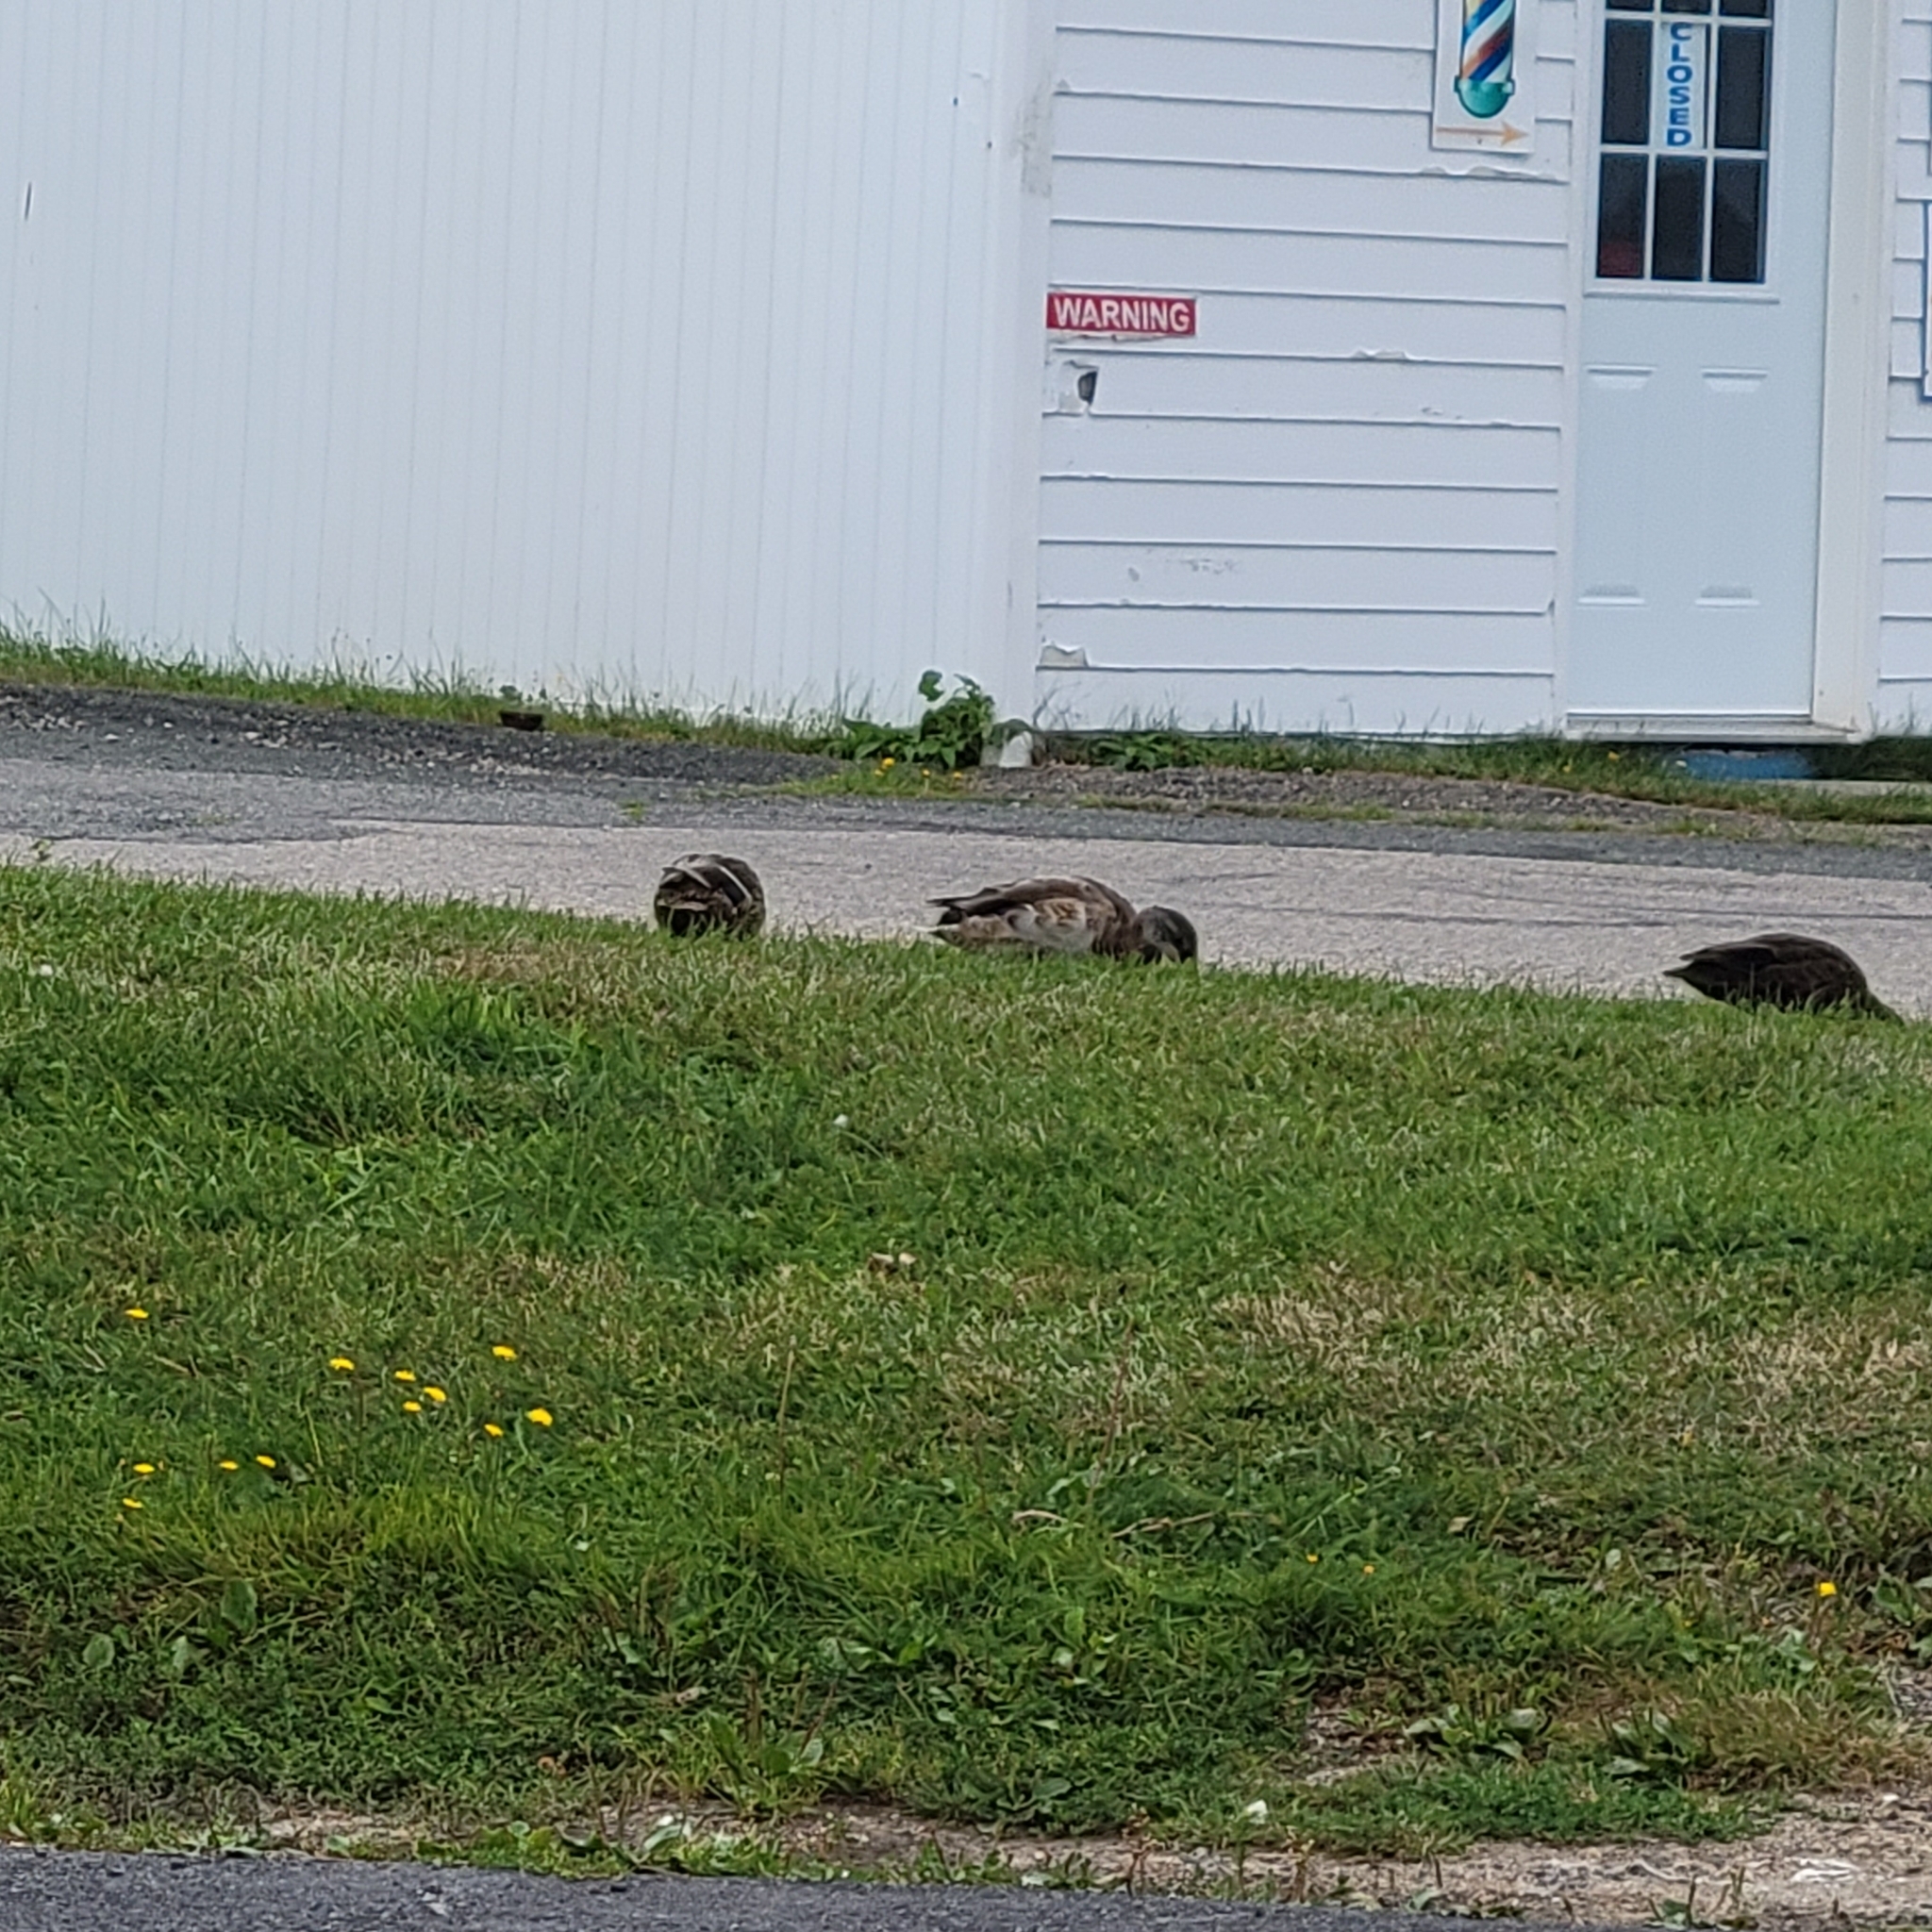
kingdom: Animalia
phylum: Chordata
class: Aves
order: Anseriformes
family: Anatidae
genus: Anas
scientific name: Anas platyrhynchos
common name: Mallard
